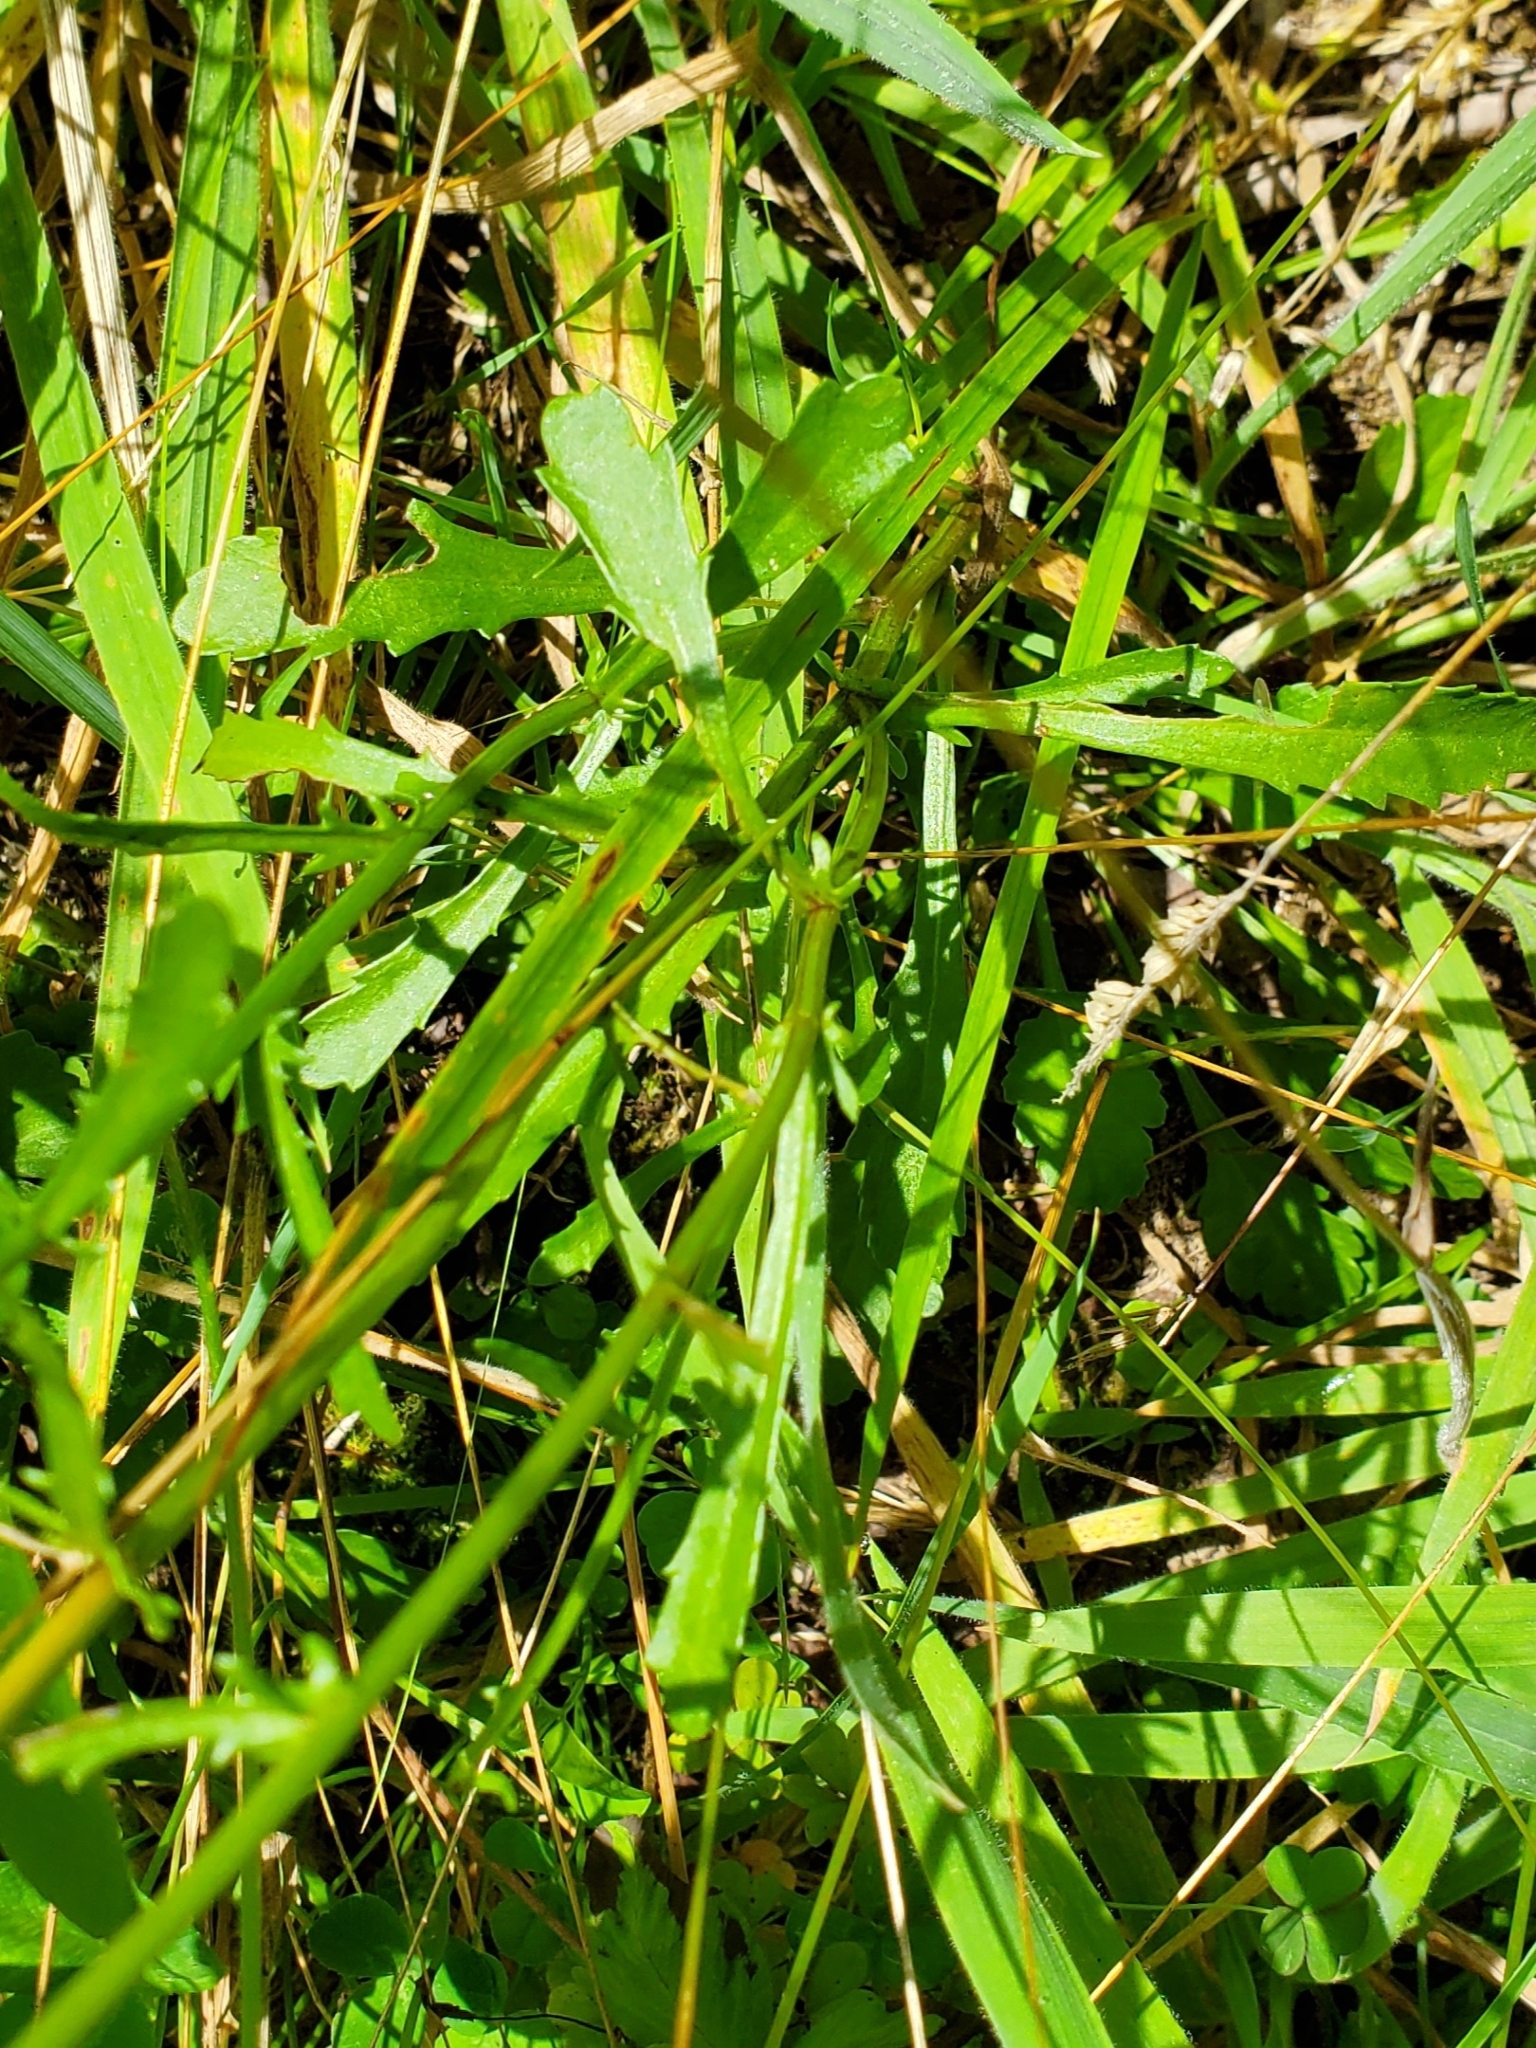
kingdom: Plantae
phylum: Tracheophyta
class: Magnoliopsida
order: Asterales
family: Asteraceae
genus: Leucanthemum
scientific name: Leucanthemum vulgare
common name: Oxeye daisy
